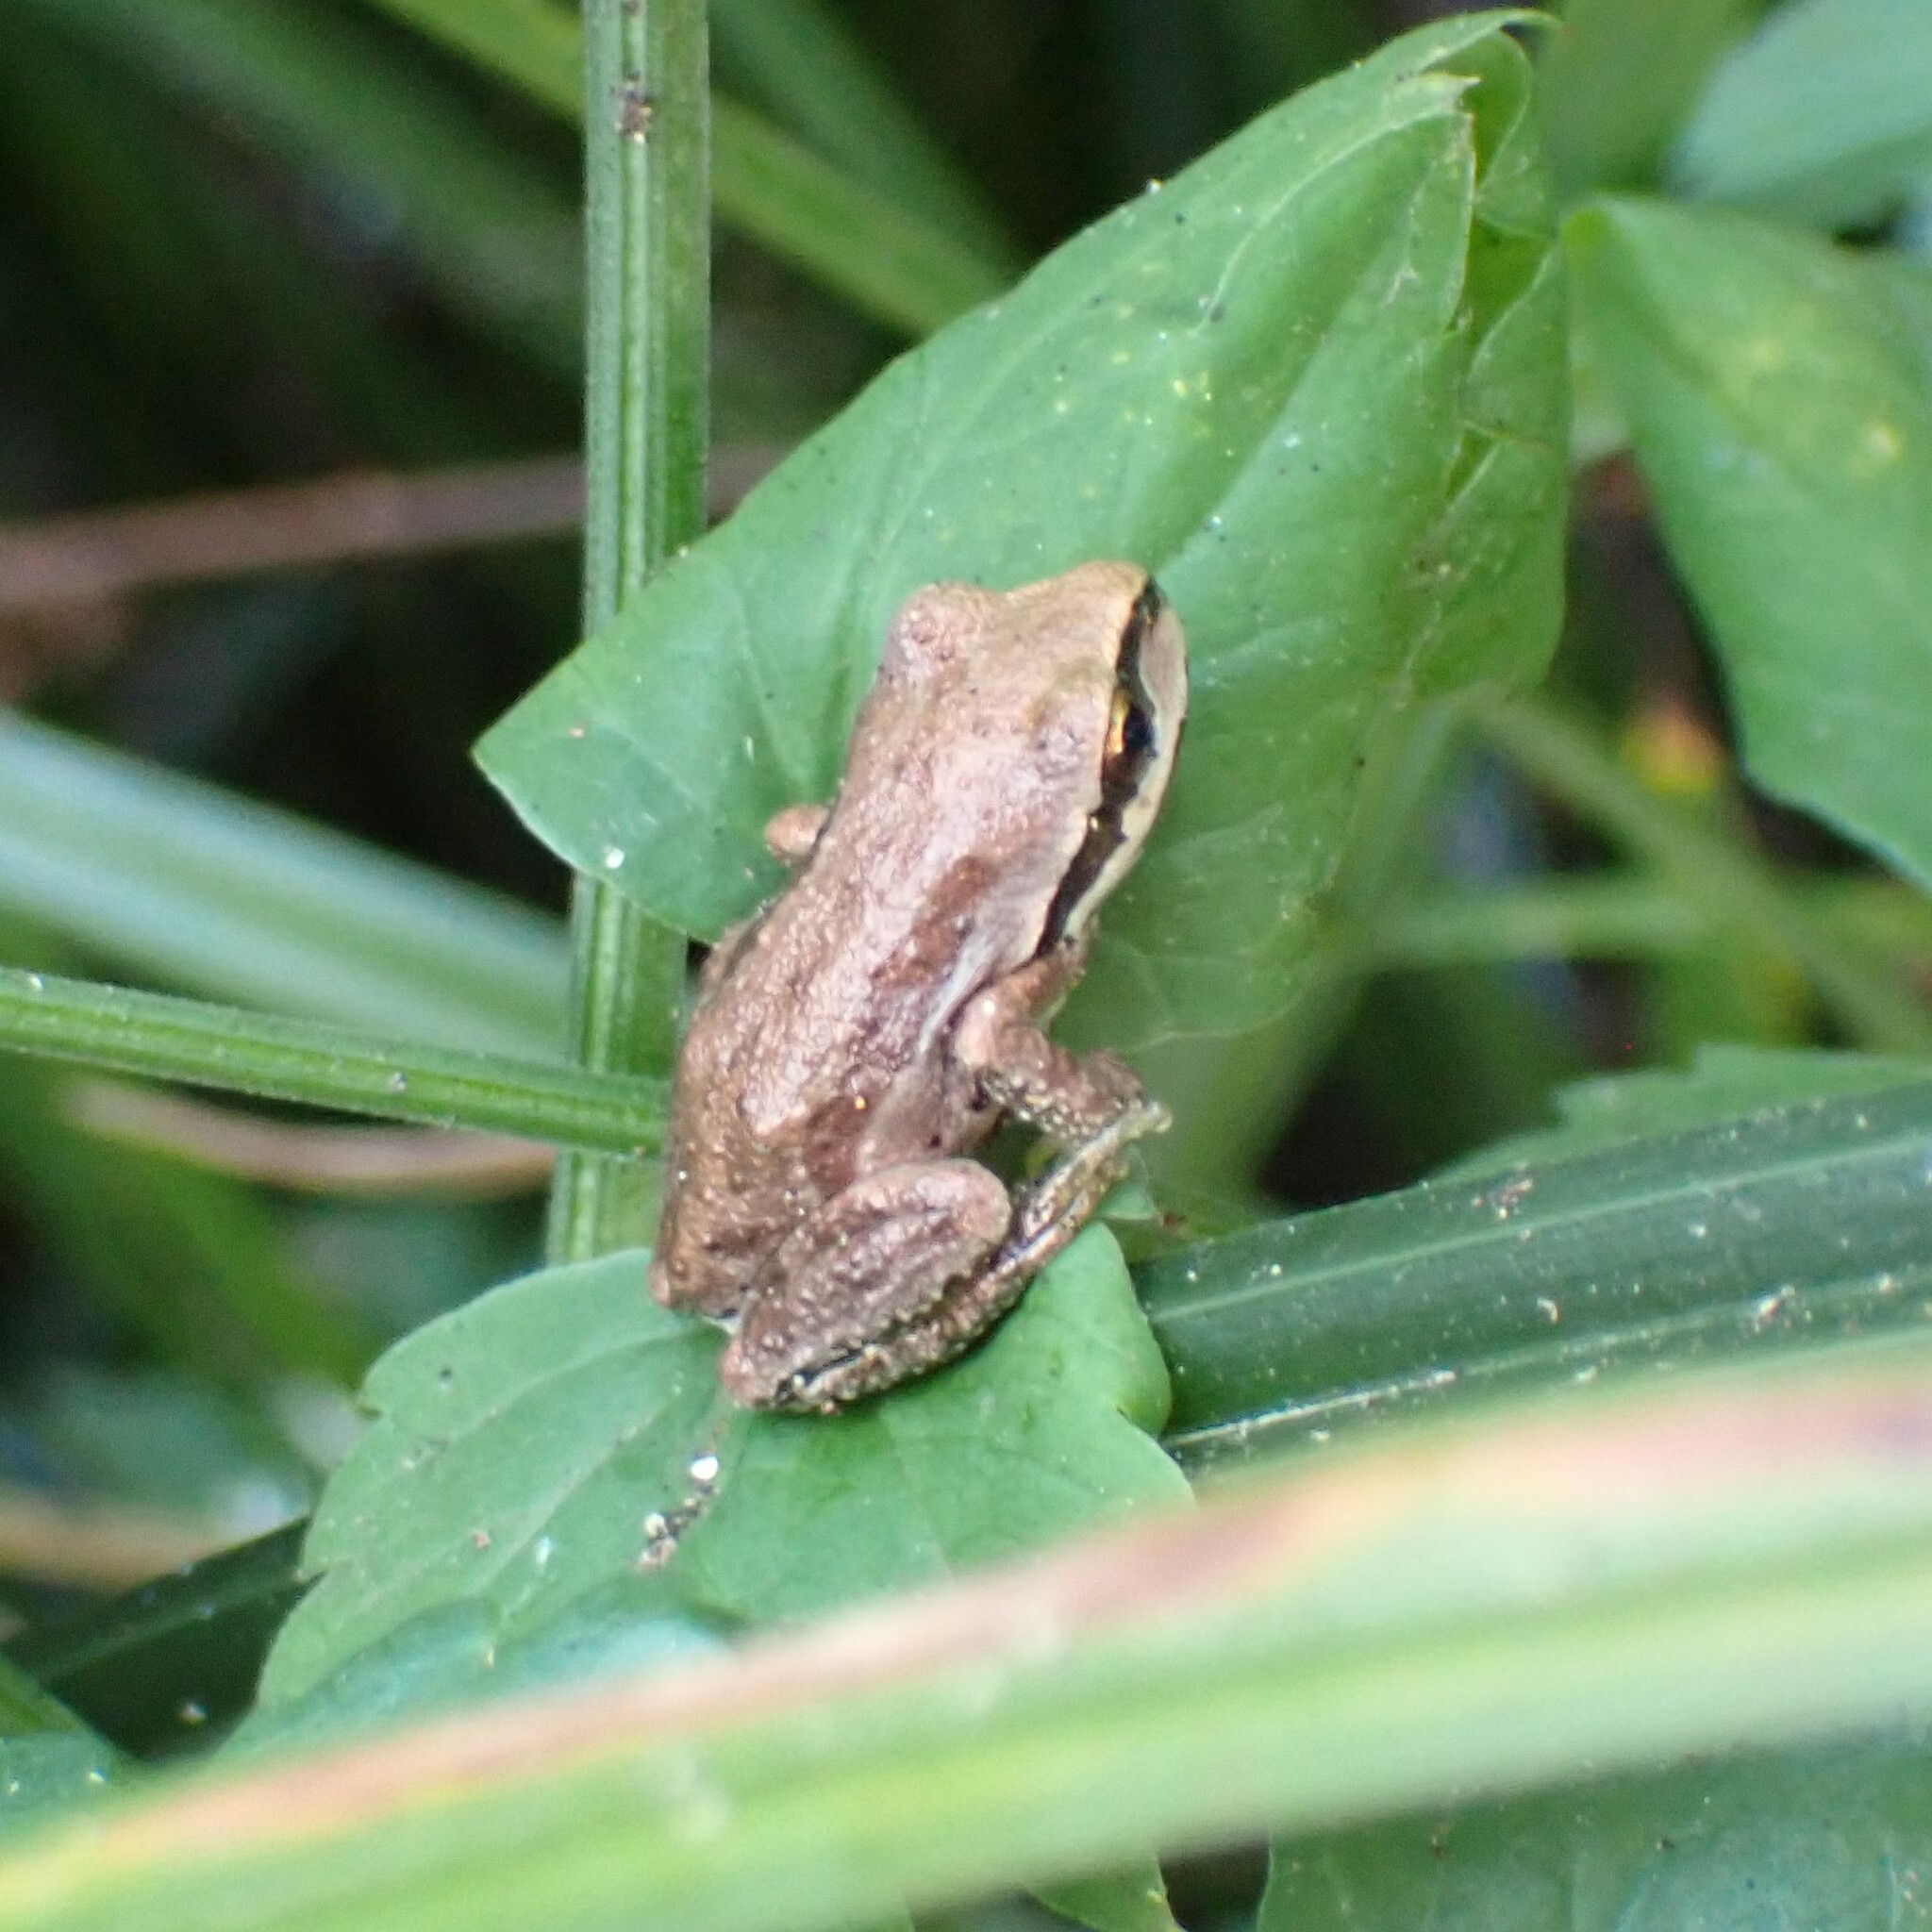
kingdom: Animalia
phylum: Chordata
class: Amphibia
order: Anura
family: Hylidae
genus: Pseudacris
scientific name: Pseudacris regilla
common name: Pacific chorus frog
